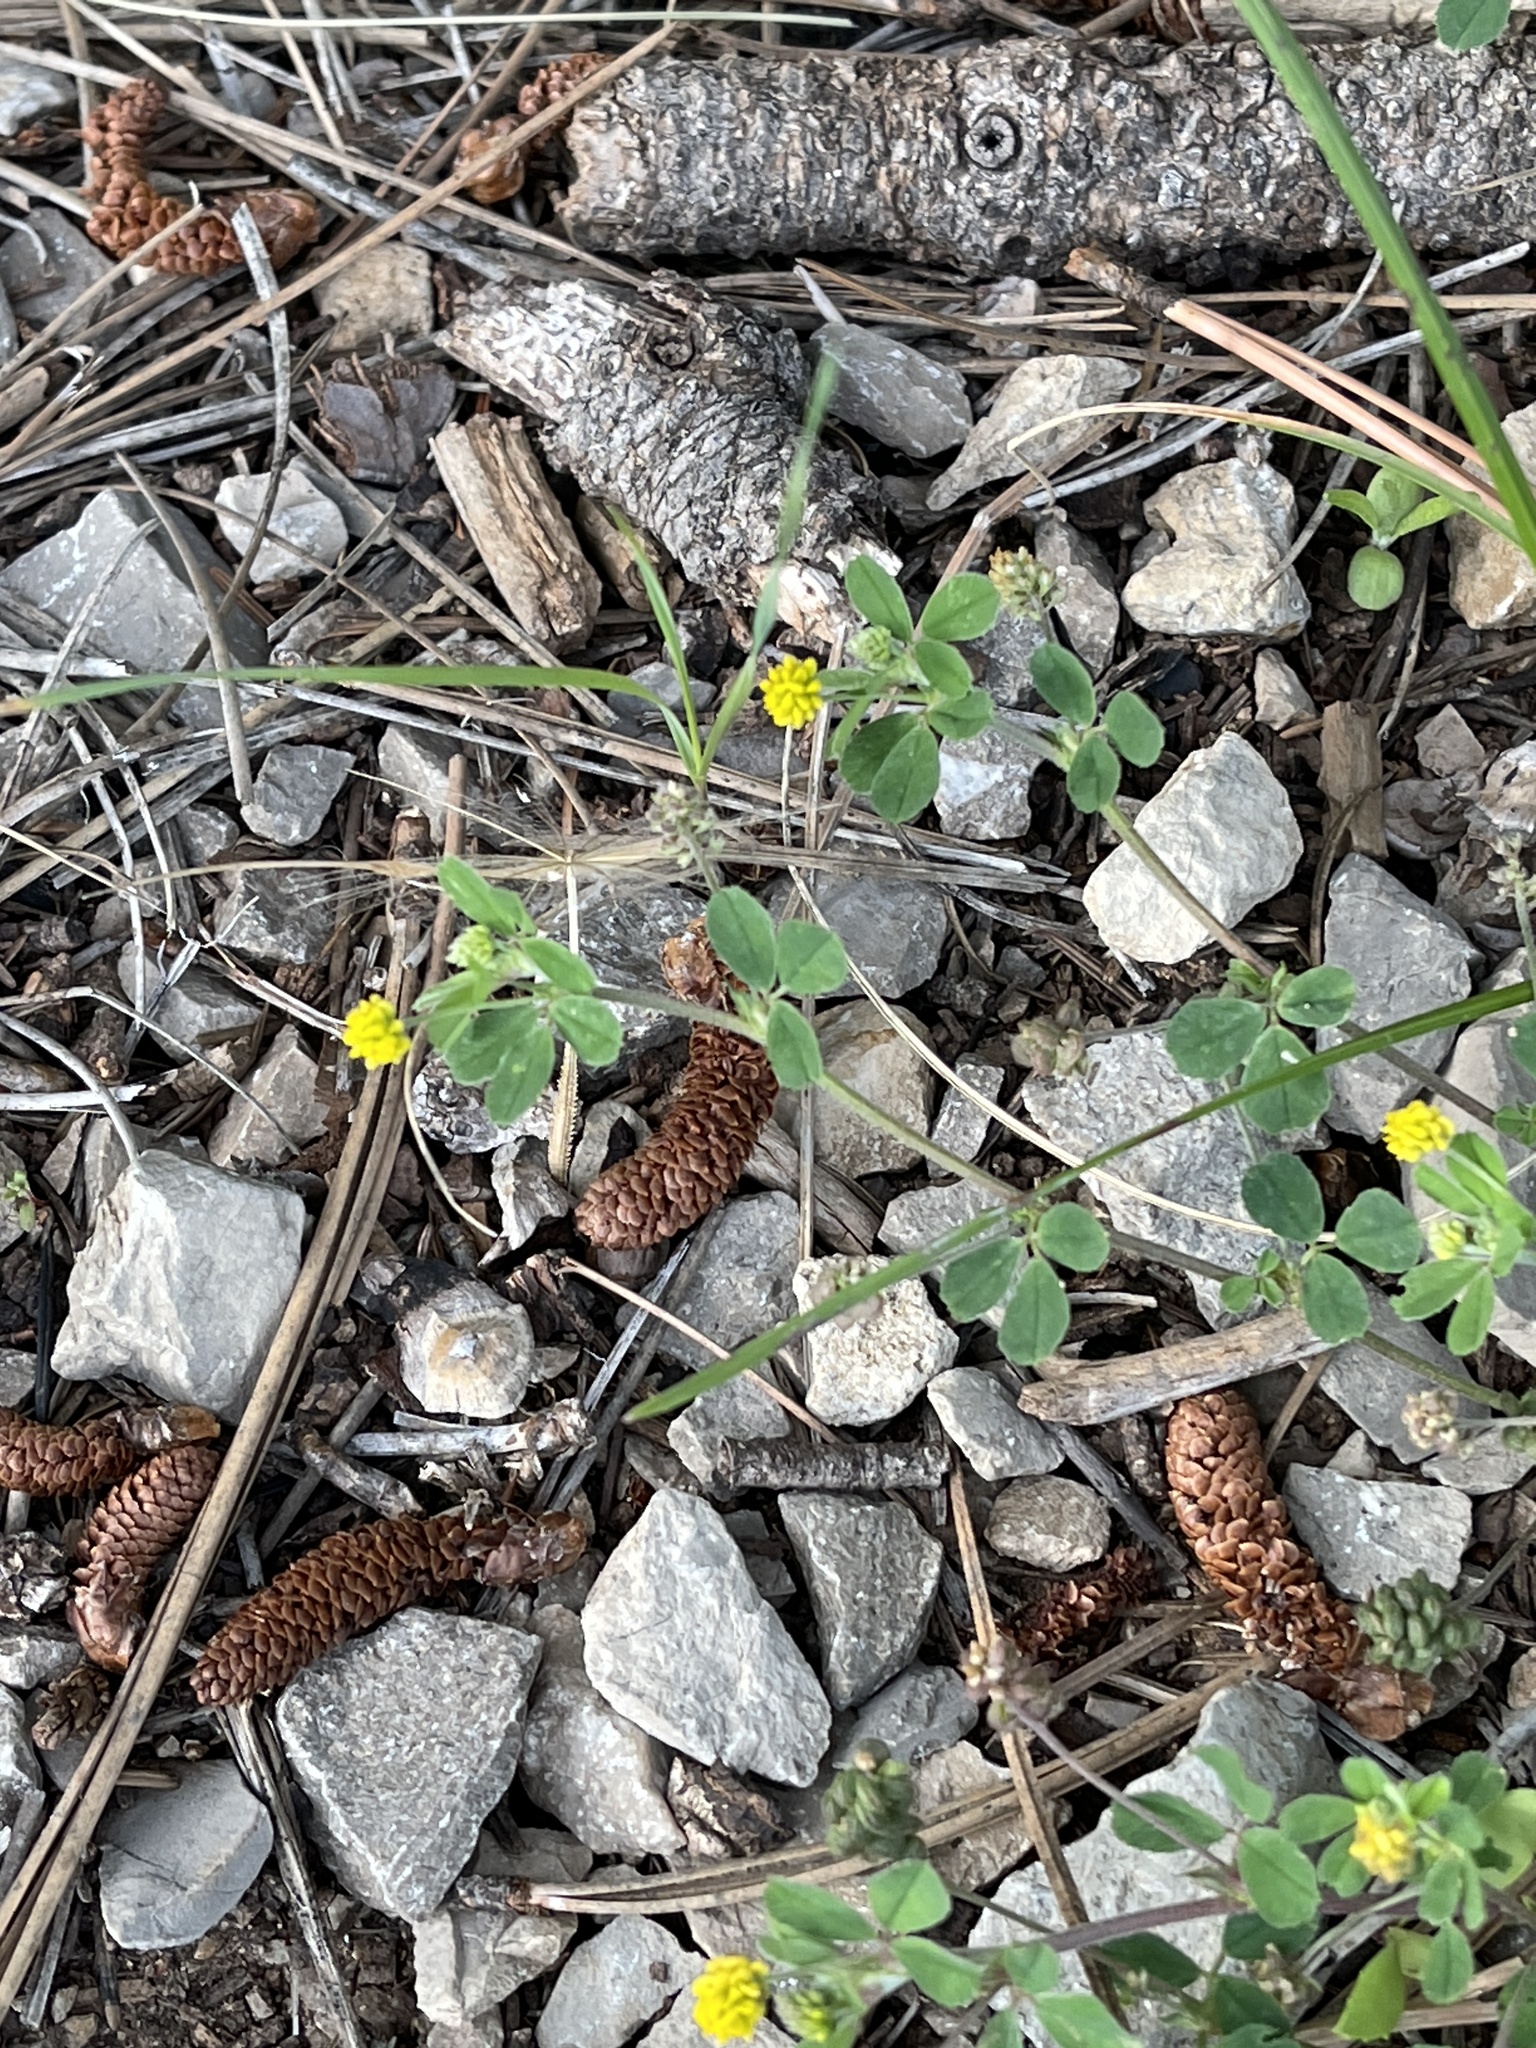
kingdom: Plantae
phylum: Tracheophyta
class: Magnoliopsida
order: Fabales
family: Fabaceae
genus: Medicago
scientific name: Medicago lupulina
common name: Black medick
